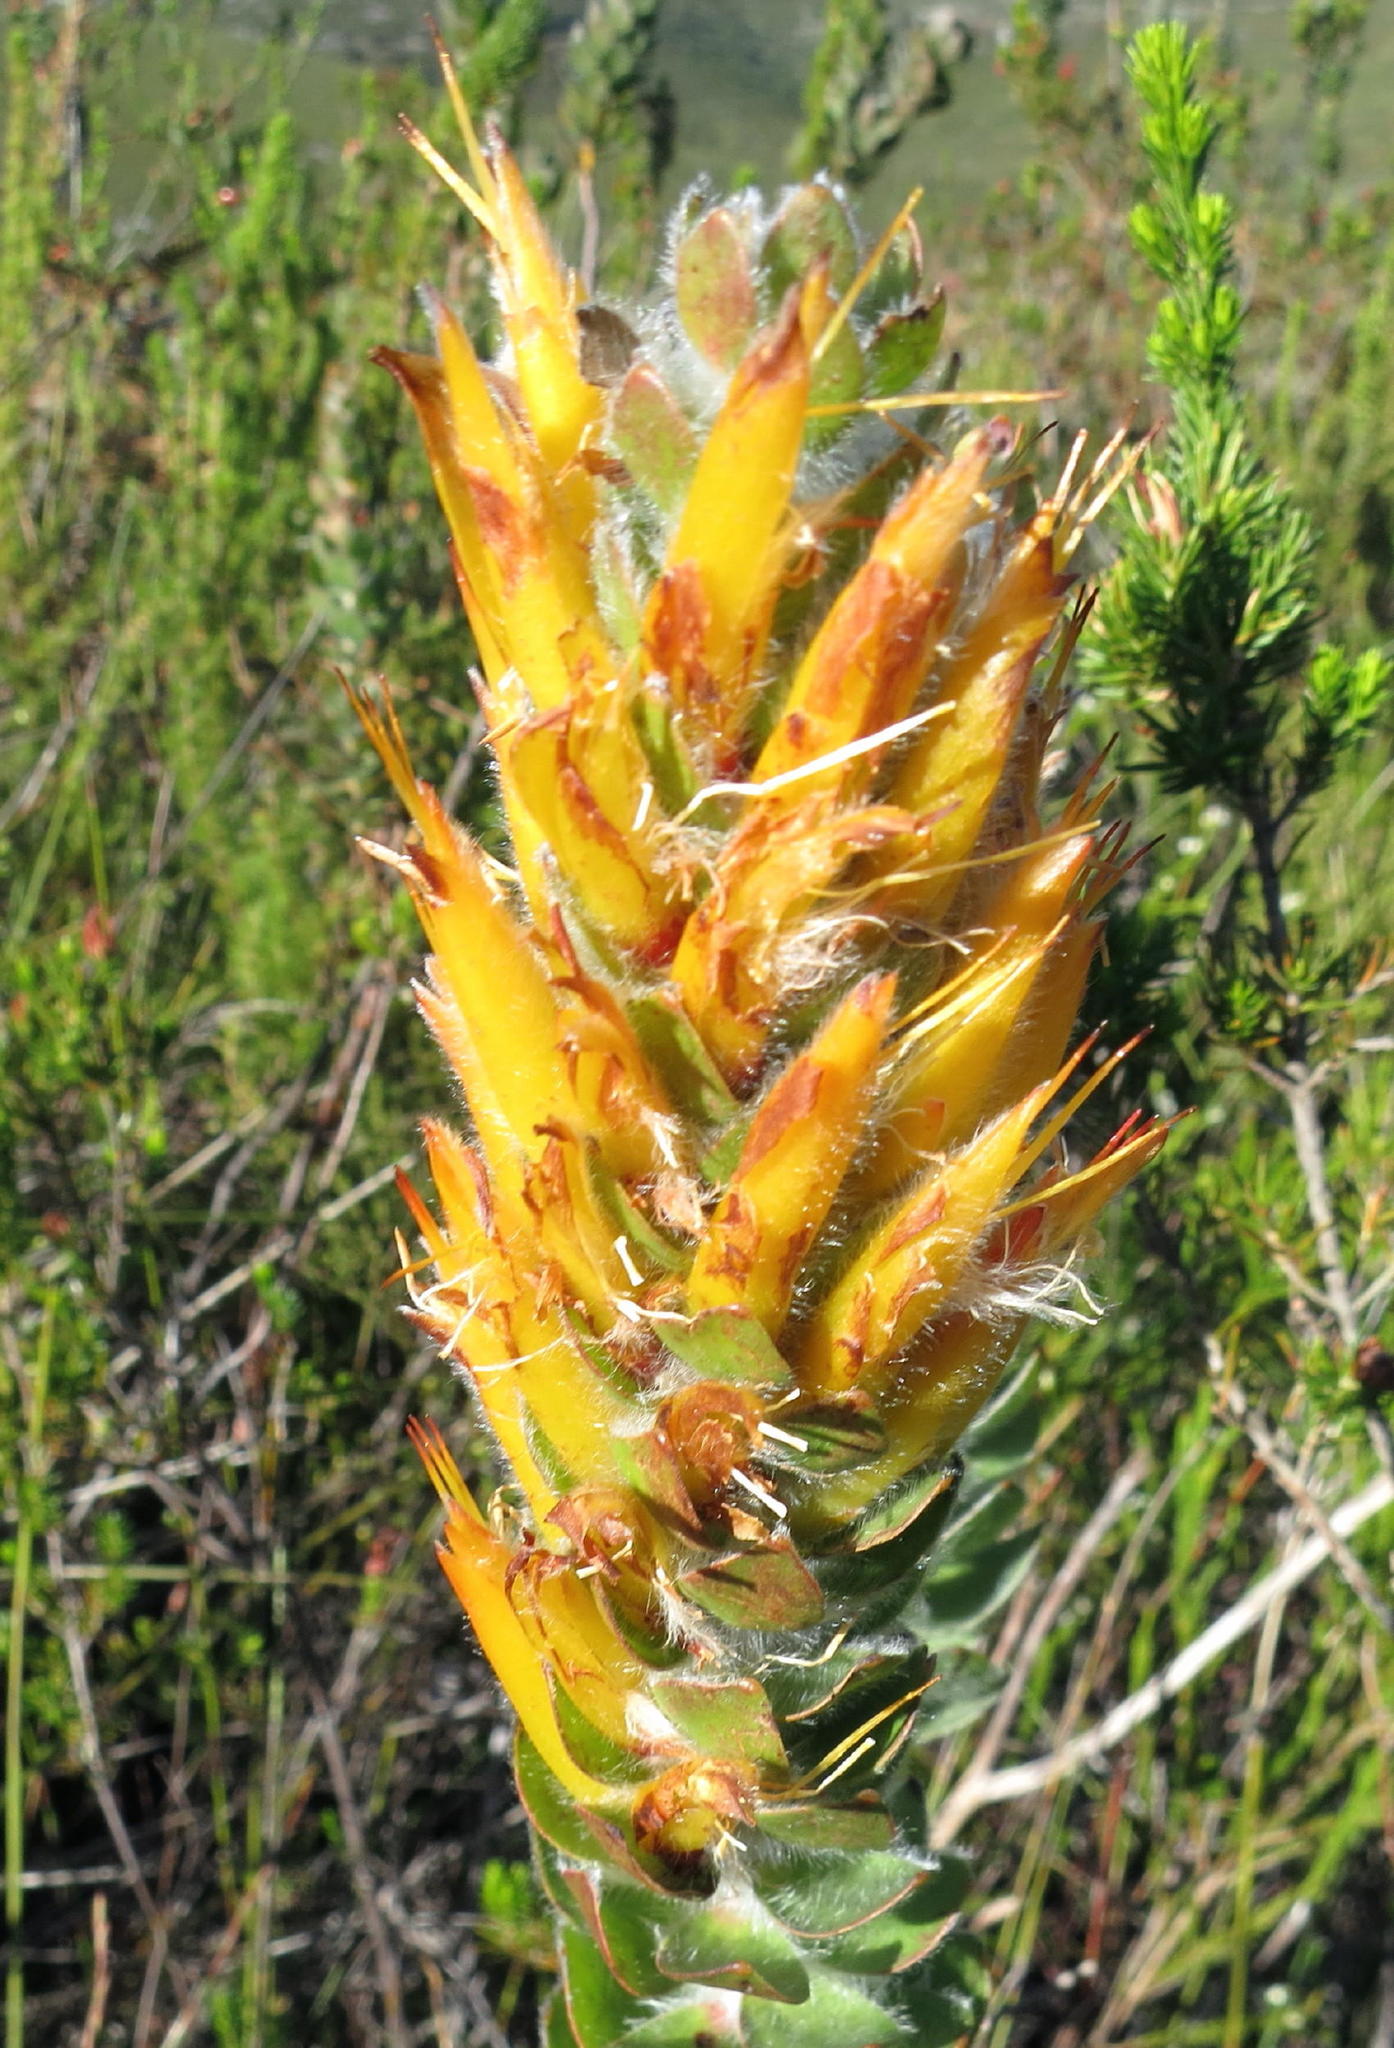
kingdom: Plantae
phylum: Tracheophyta
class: Magnoliopsida
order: Proteales
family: Proteaceae
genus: Mimetes
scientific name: Mimetes pauciflora
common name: Three-flowered pagoda
